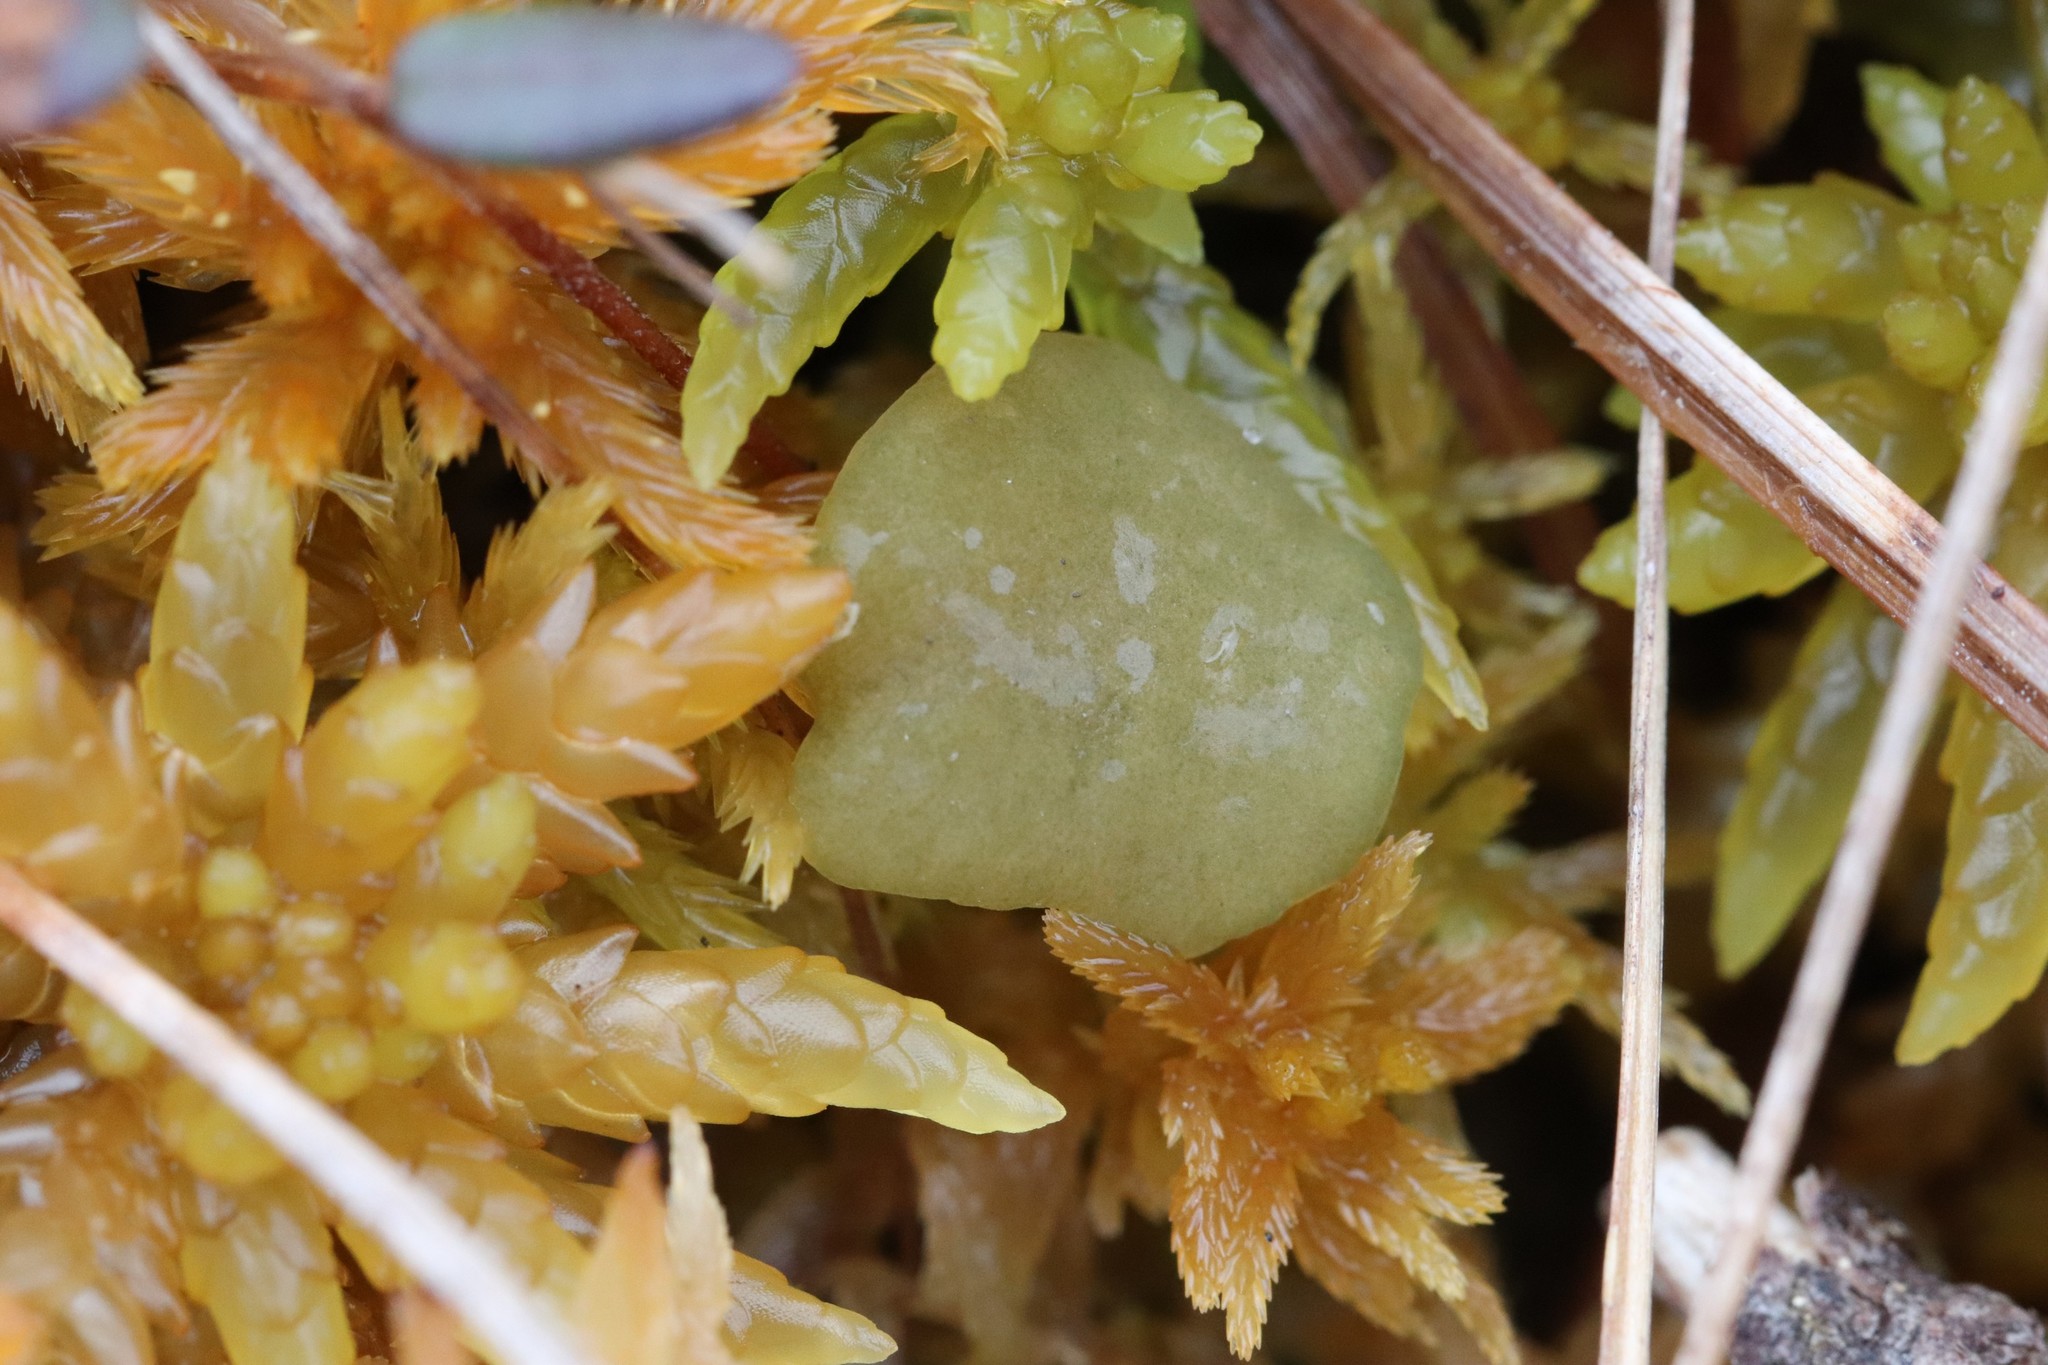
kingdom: Fungi
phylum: Ascomycota
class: Leotiomycetes
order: Helotiales
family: Gelatinodiscaceae
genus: Ascocoryne
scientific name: Ascocoryne turficola
